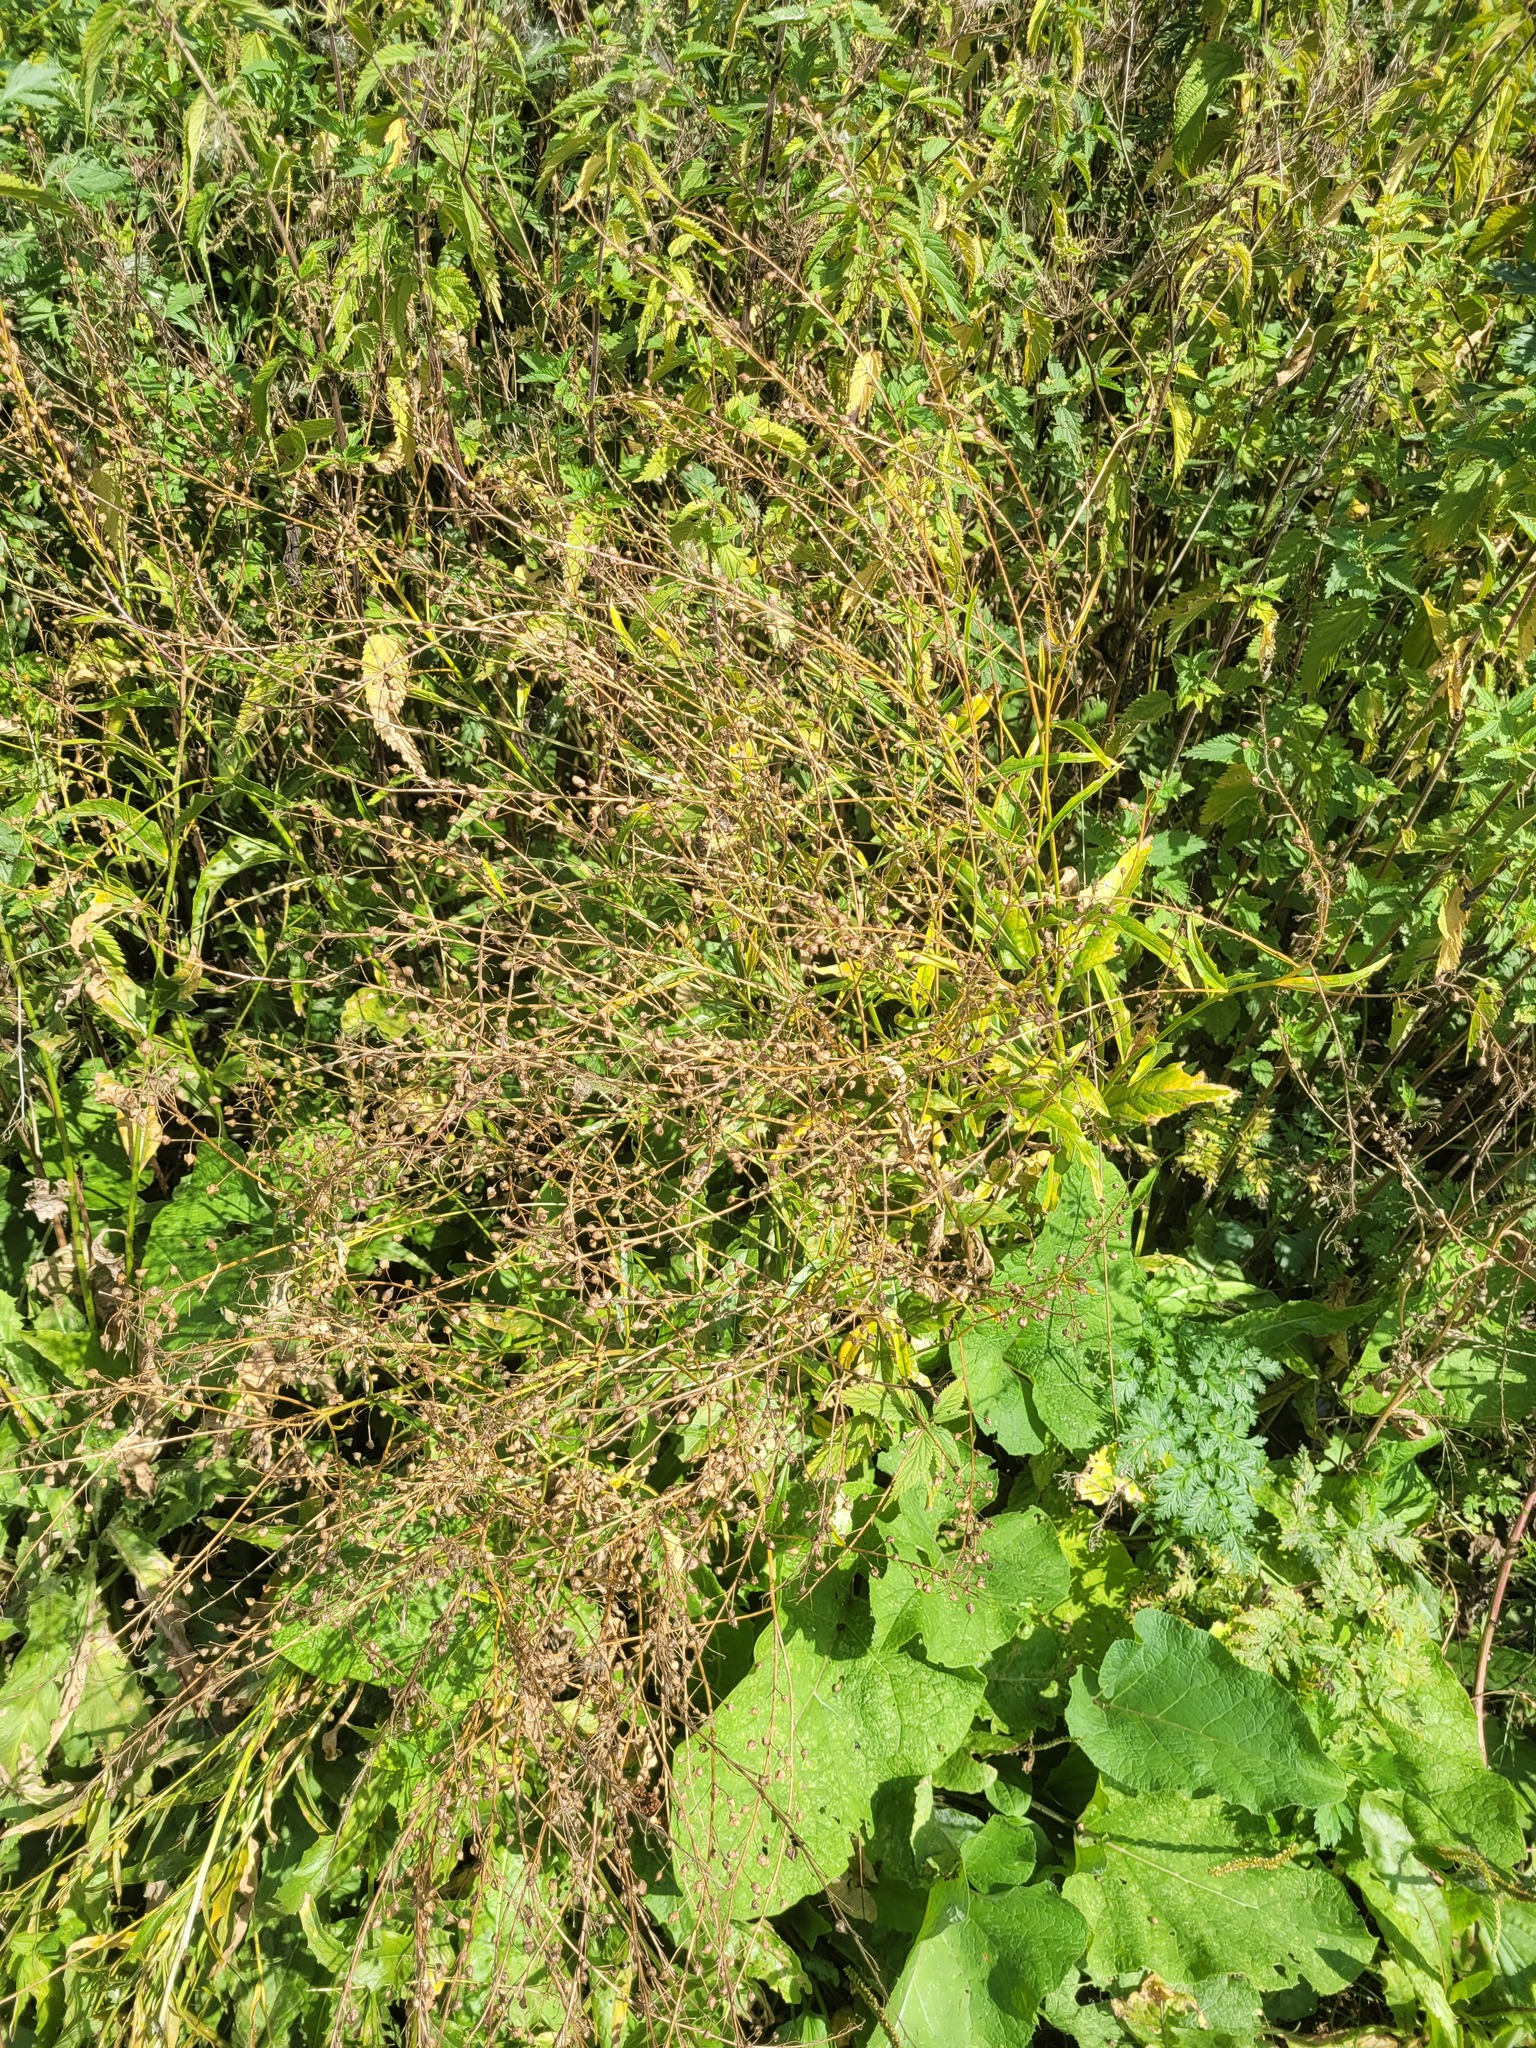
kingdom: Plantae
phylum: Tracheophyta
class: Magnoliopsida
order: Brassicales
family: Brassicaceae
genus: Bunias
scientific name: Bunias orientalis
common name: Warty-cabbage
